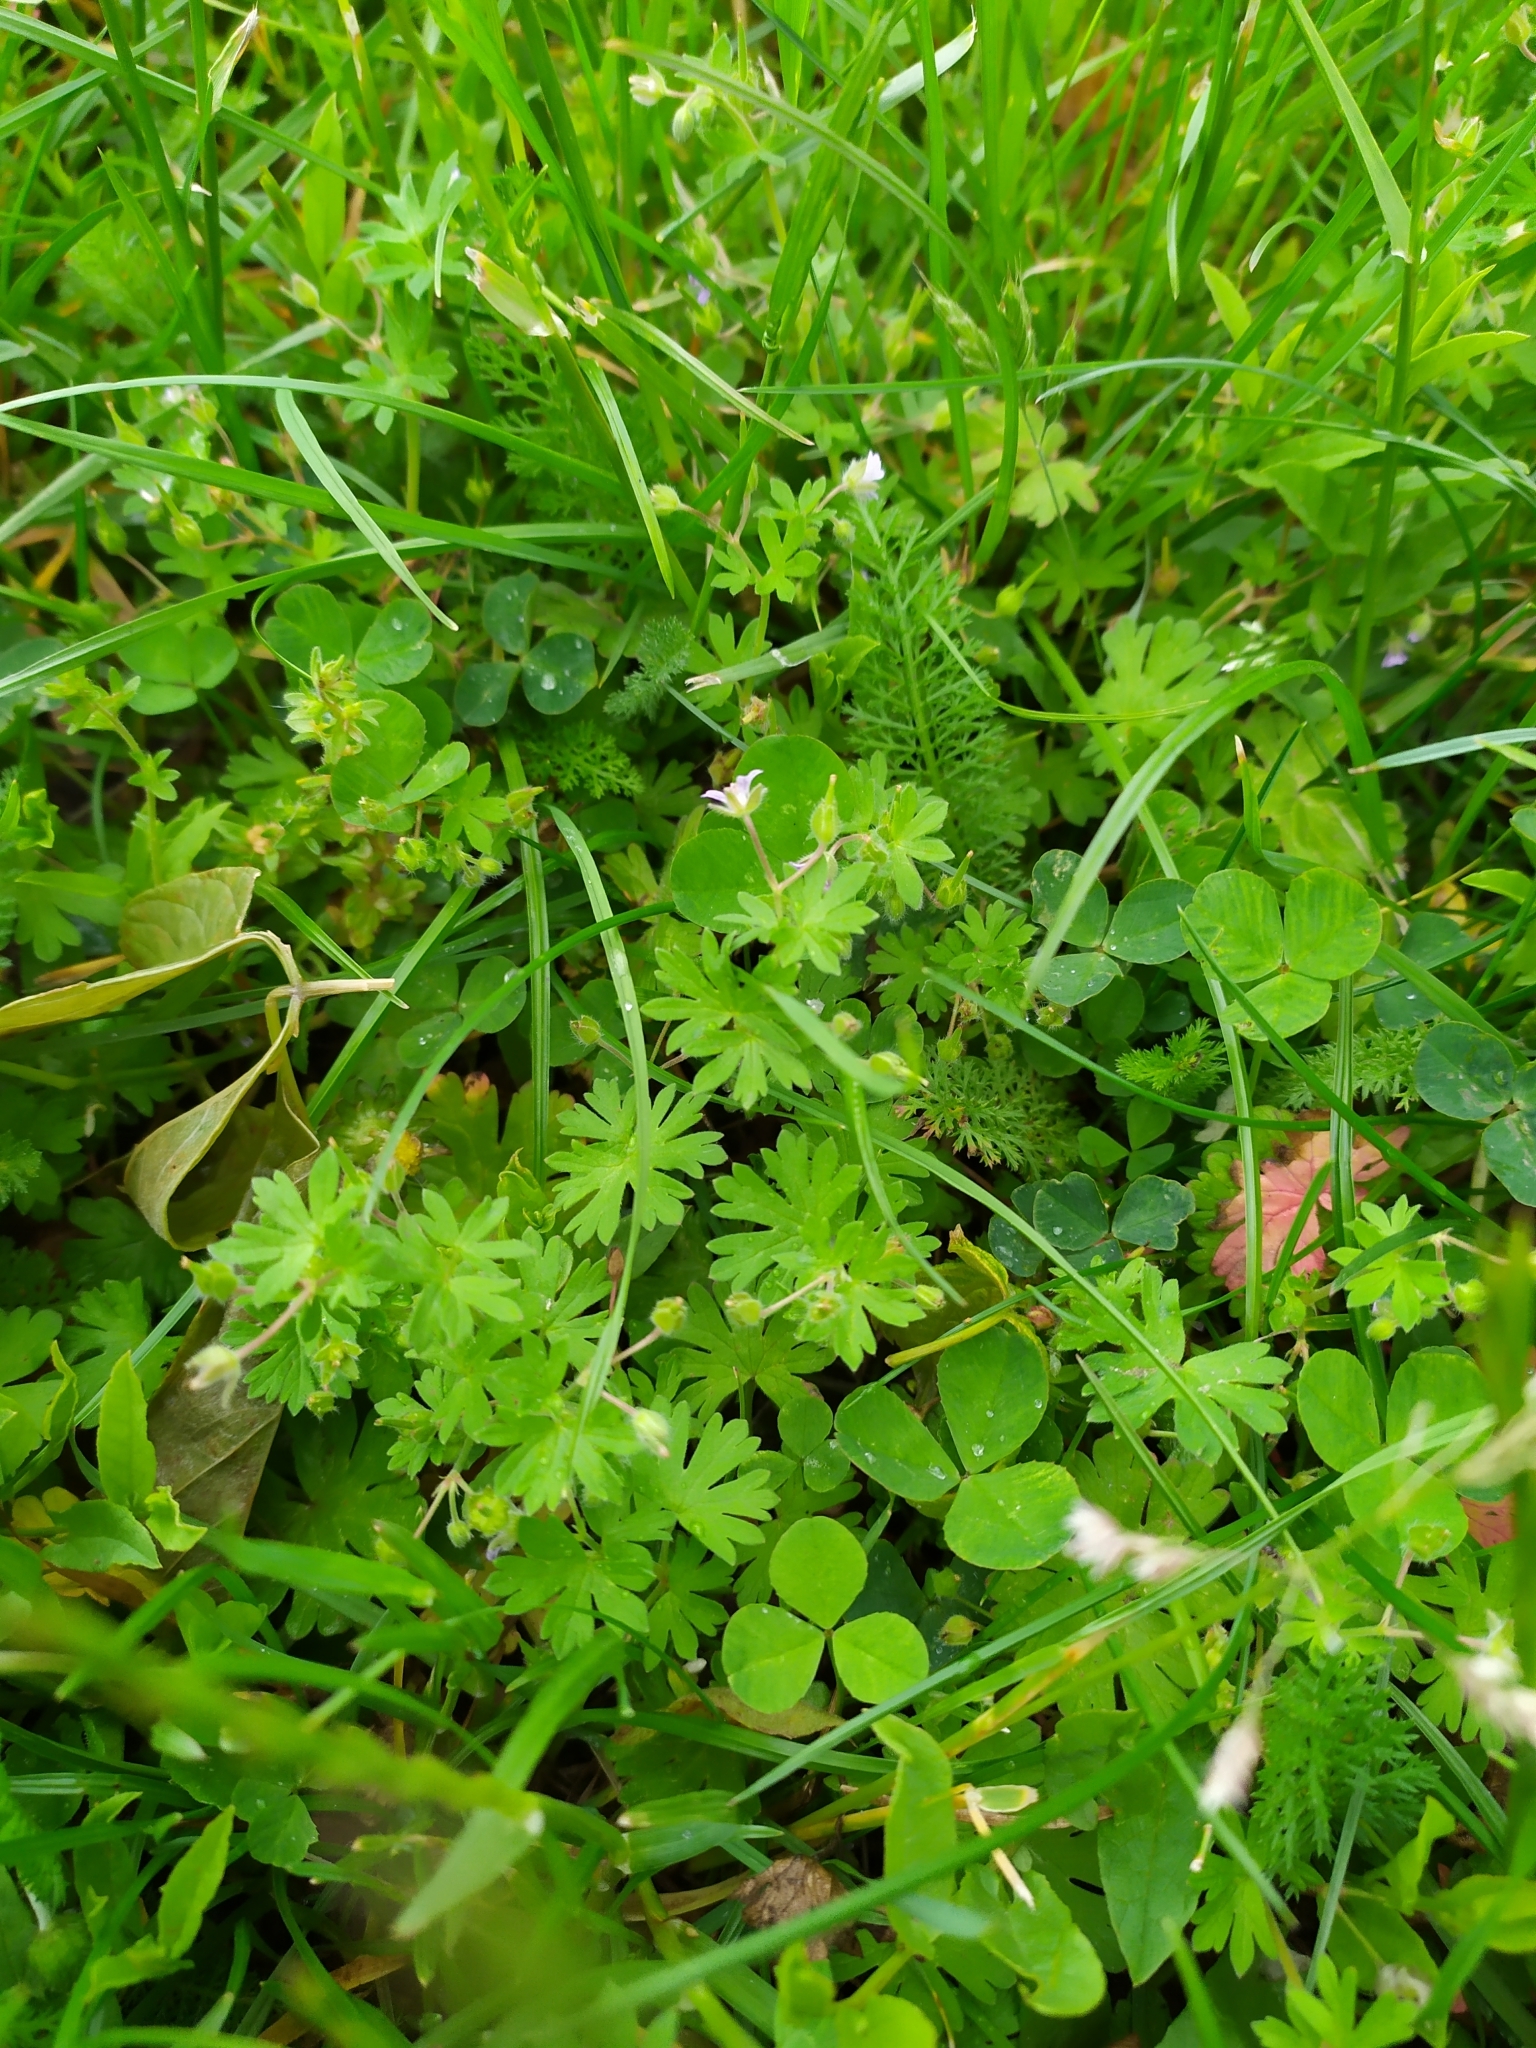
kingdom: Plantae
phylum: Tracheophyta
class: Magnoliopsida
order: Geraniales
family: Geraniaceae
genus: Geranium
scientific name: Geranium pusillum
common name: Small geranium
